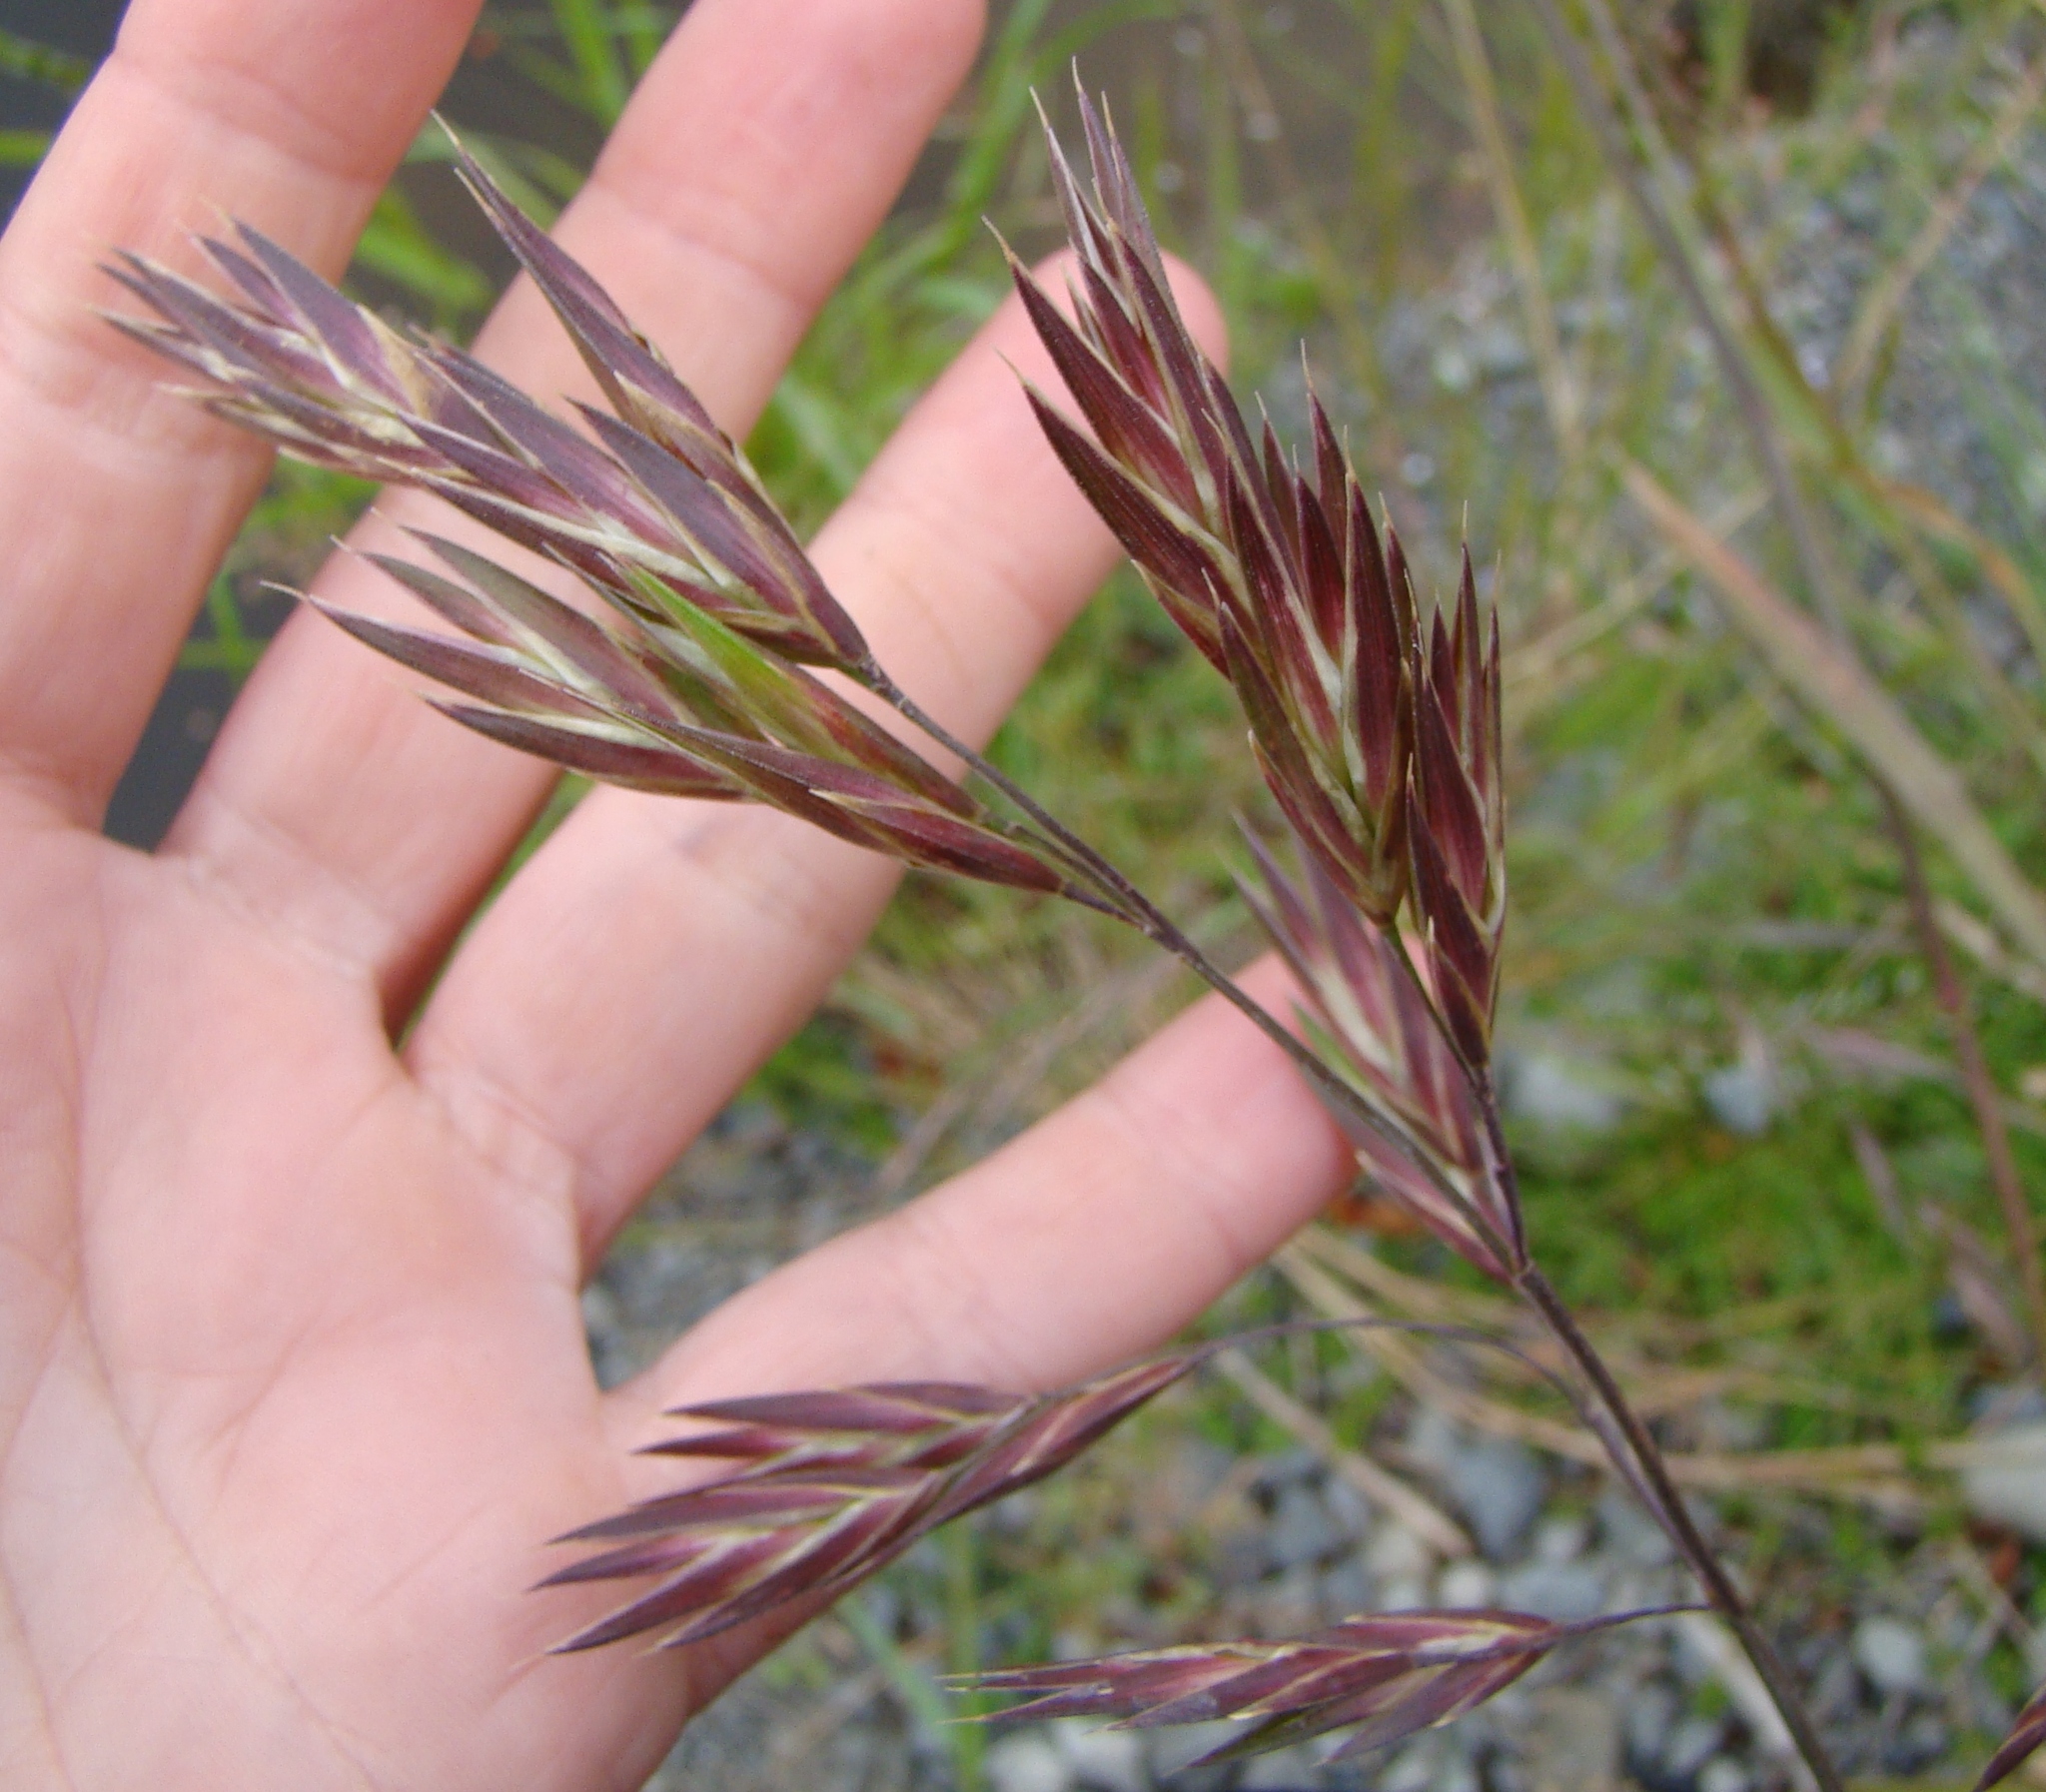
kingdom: Plantae
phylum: Tracheophyta
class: Liliopsida
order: Poales
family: Poaceae
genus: Bromus
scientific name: Bromus diandrus
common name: Ripgut brome
